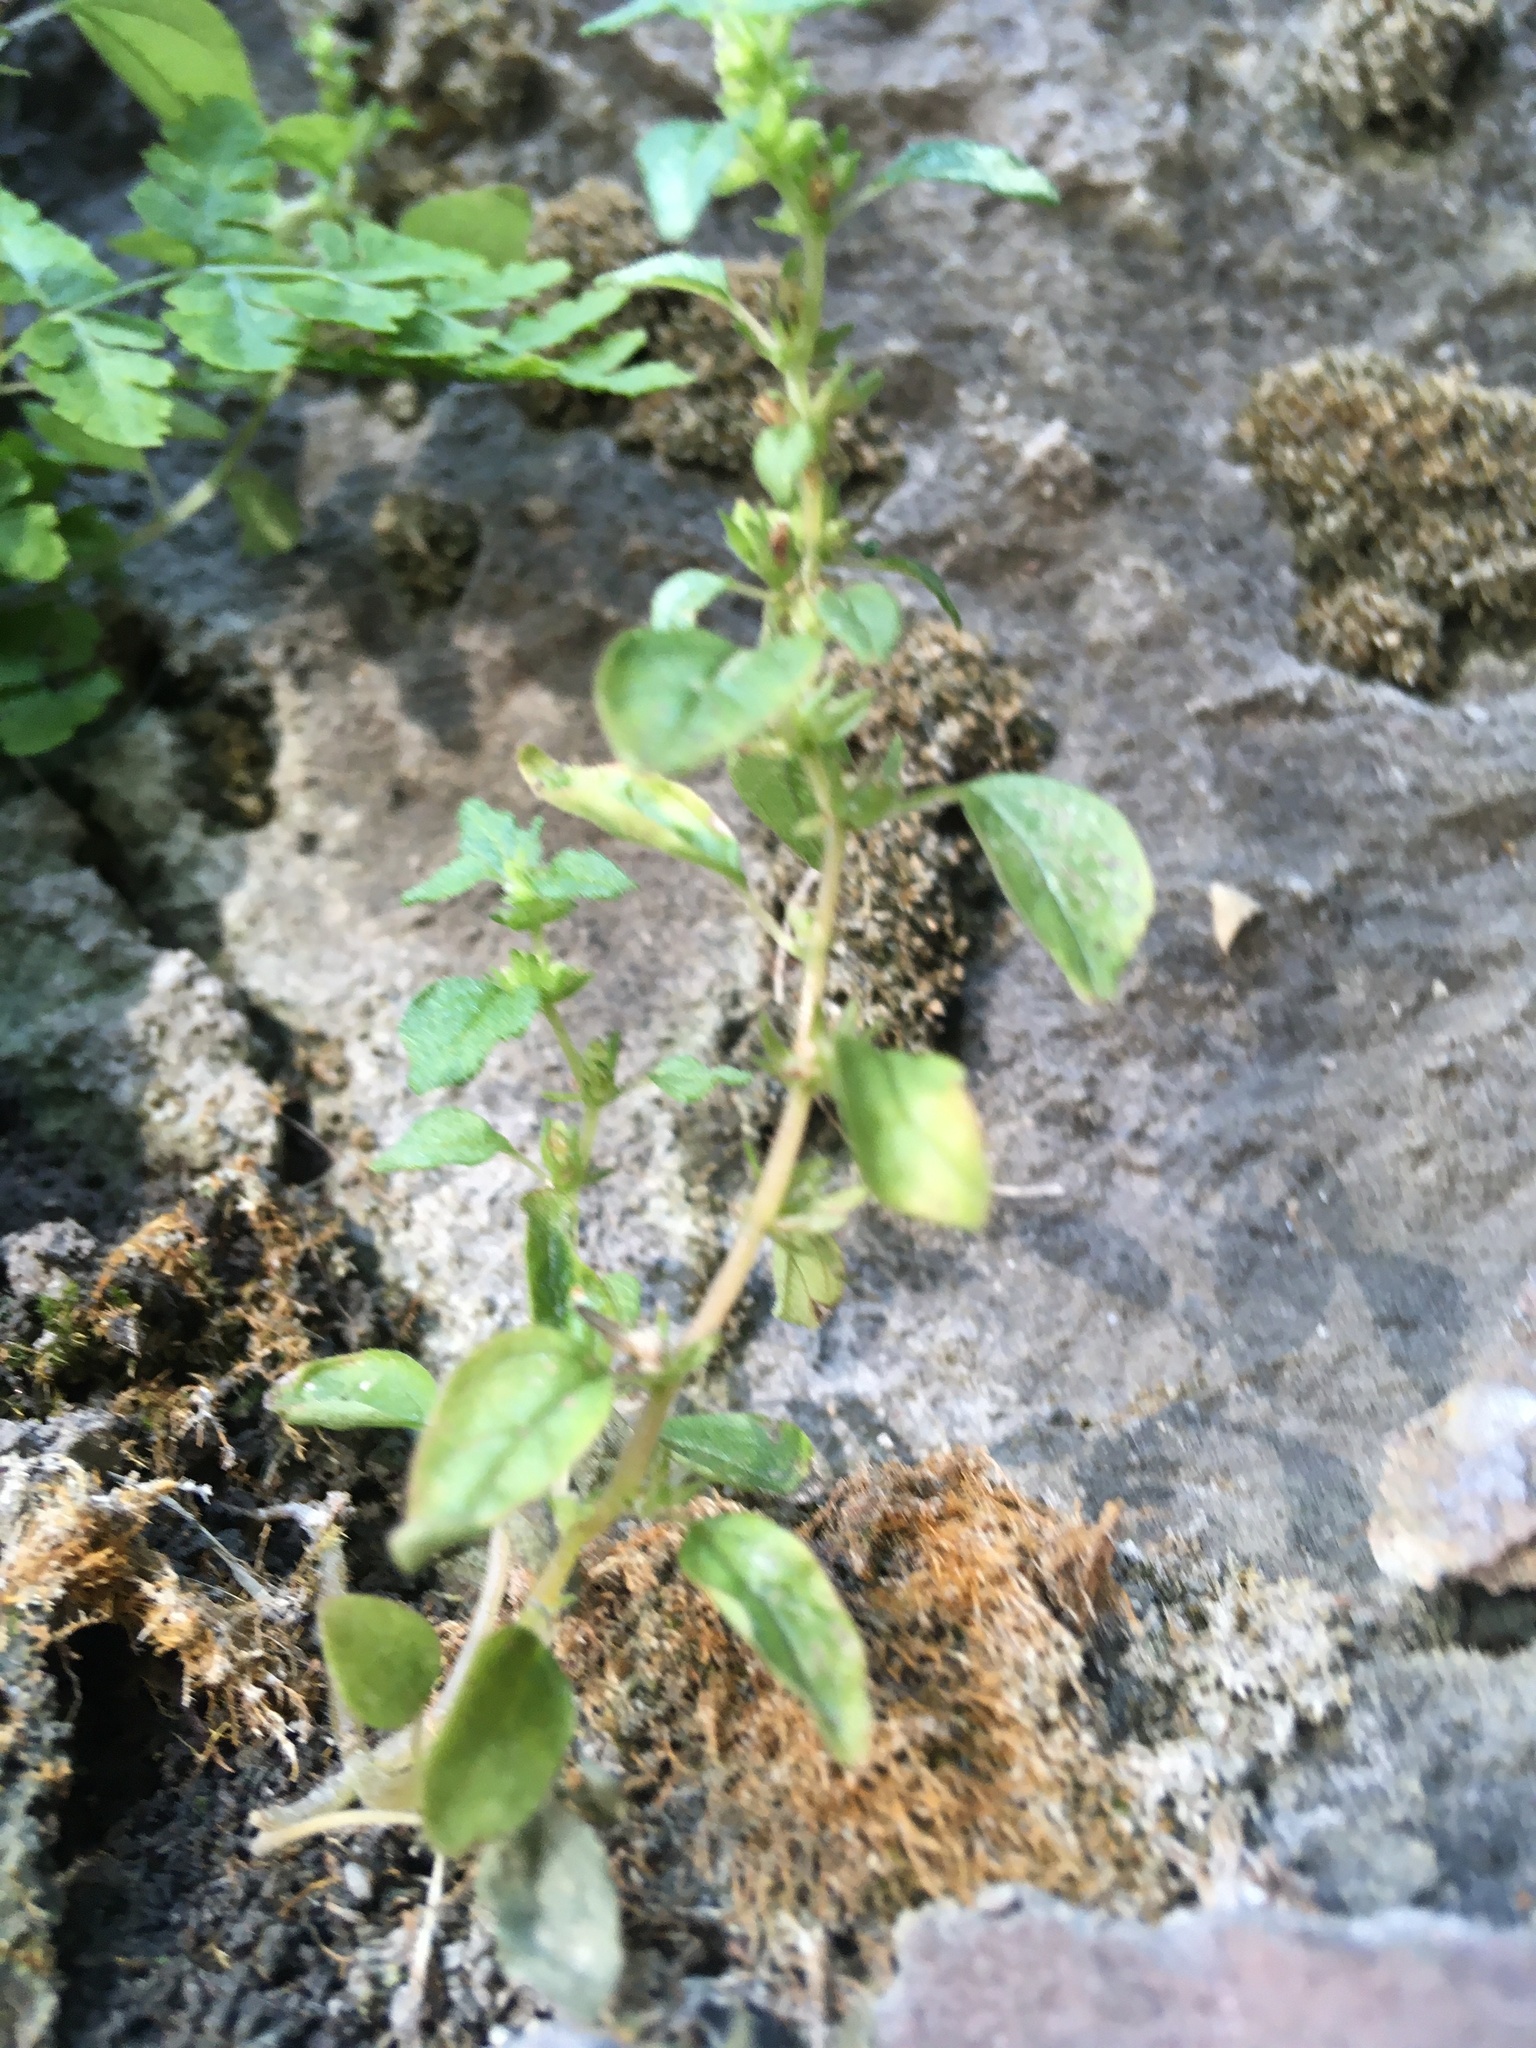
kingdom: Plantae
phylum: Tracheophyta
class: Magnoliopsida
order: Rosales
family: Urticaceae
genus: Parietaria
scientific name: Parietaria pensylvanica
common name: Pennsylvania pellitory
